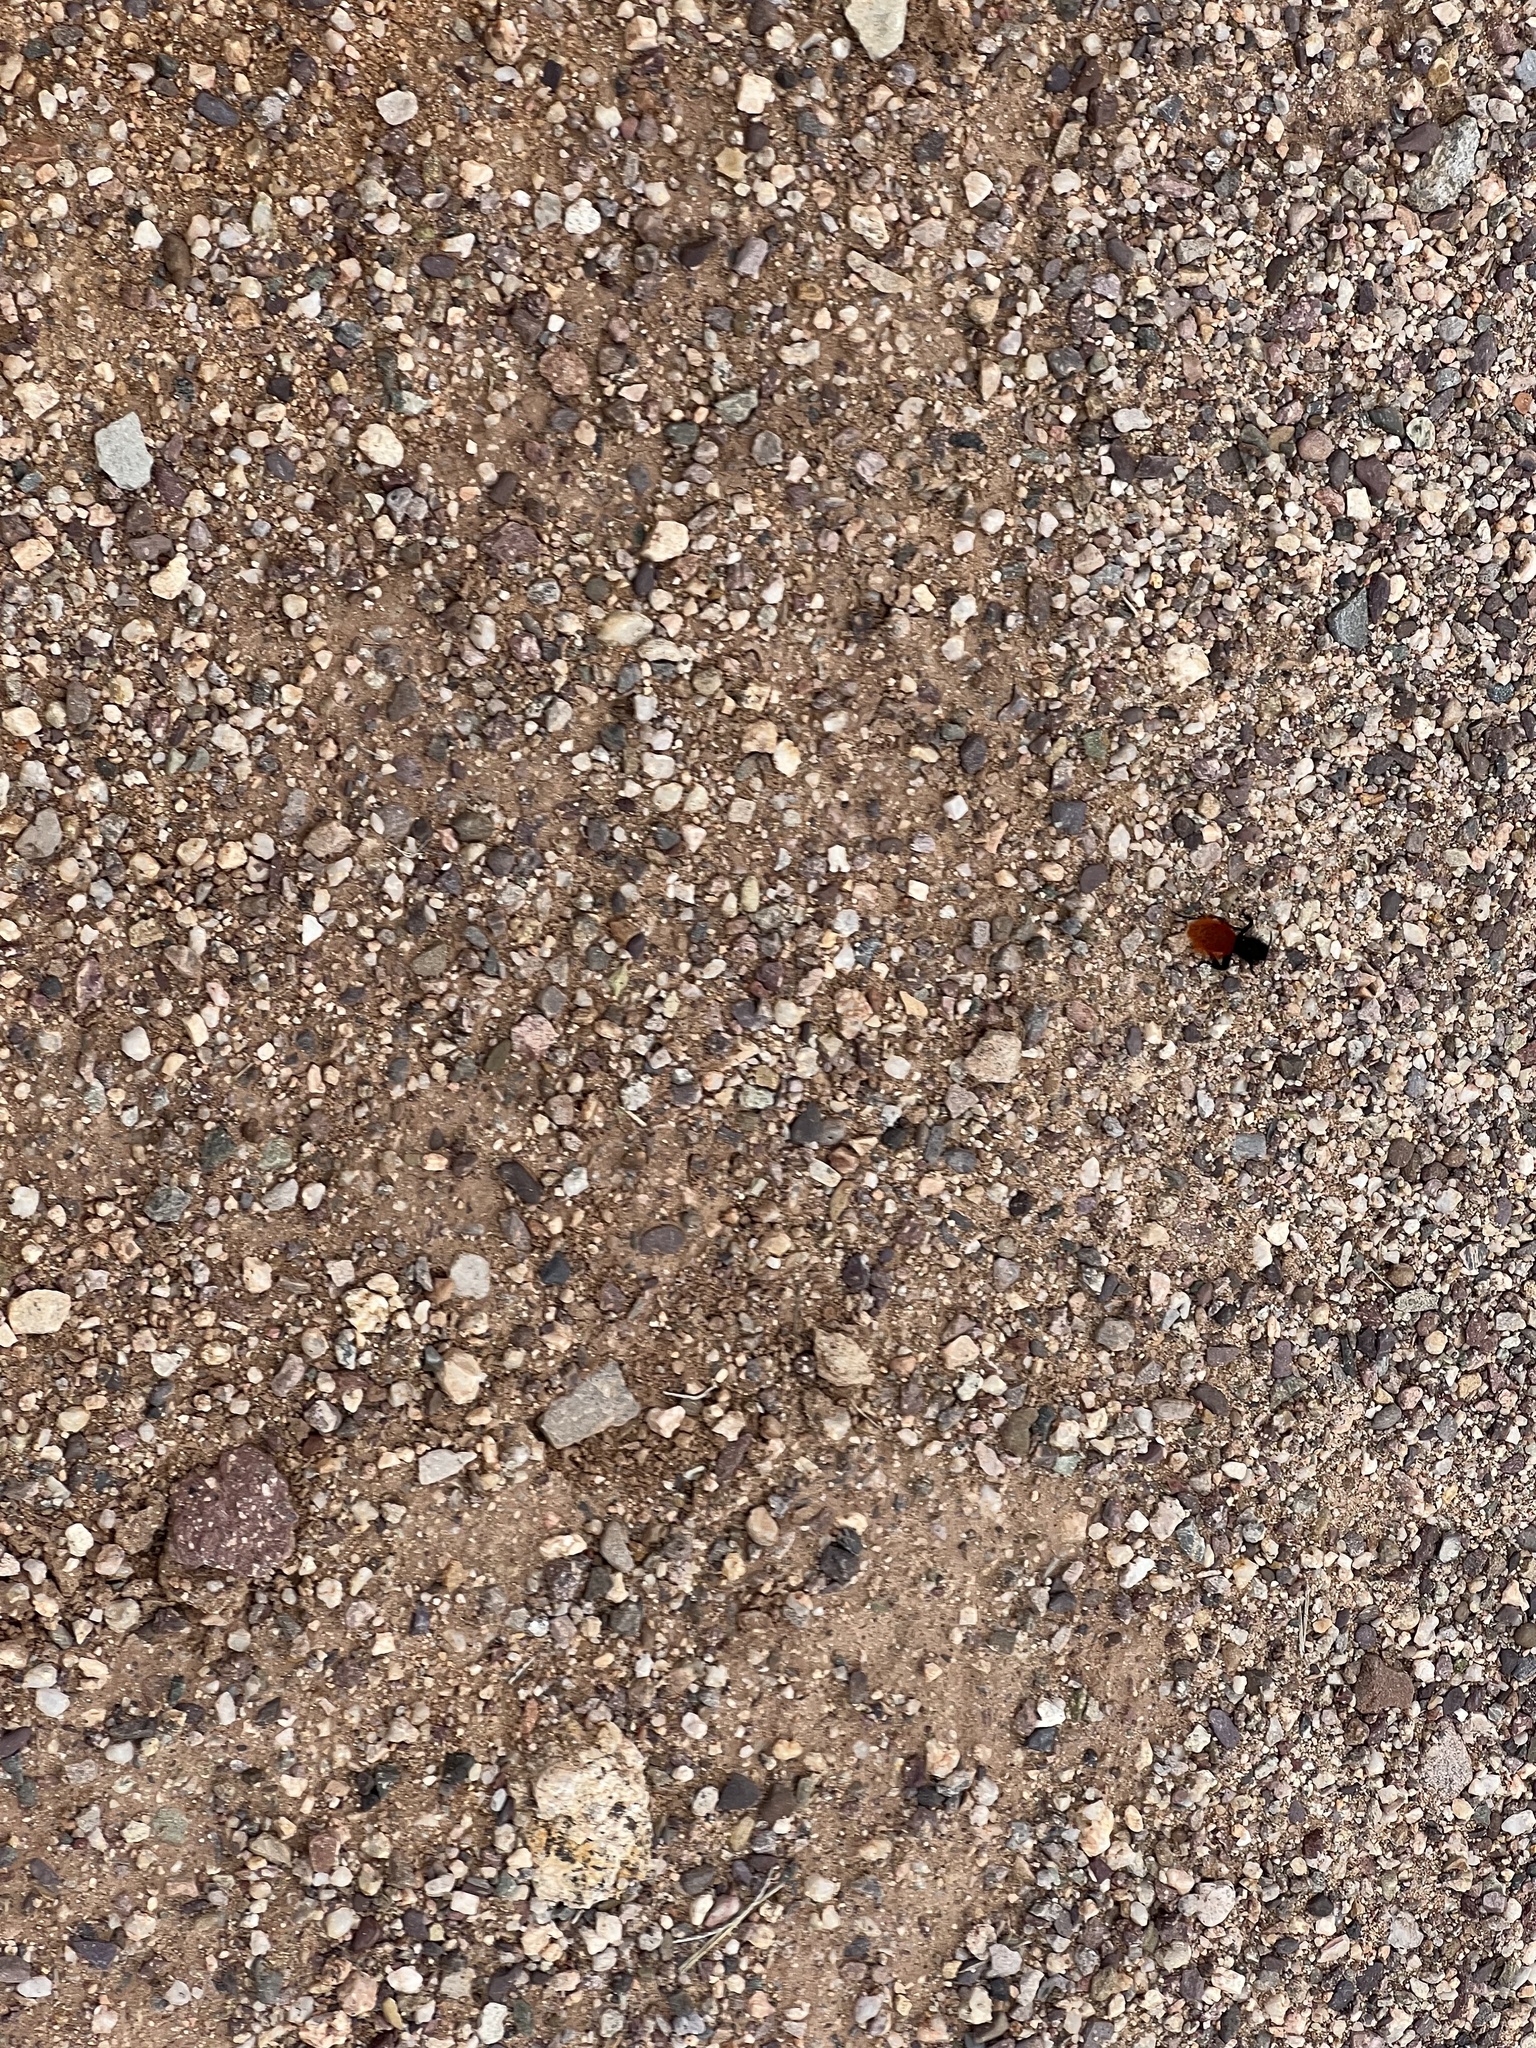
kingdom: Animalia
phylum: Arthropoda
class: Insecta
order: Hymenoptera
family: Mutillidae
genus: Dasymutilla
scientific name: Dasymutilla magnifica
